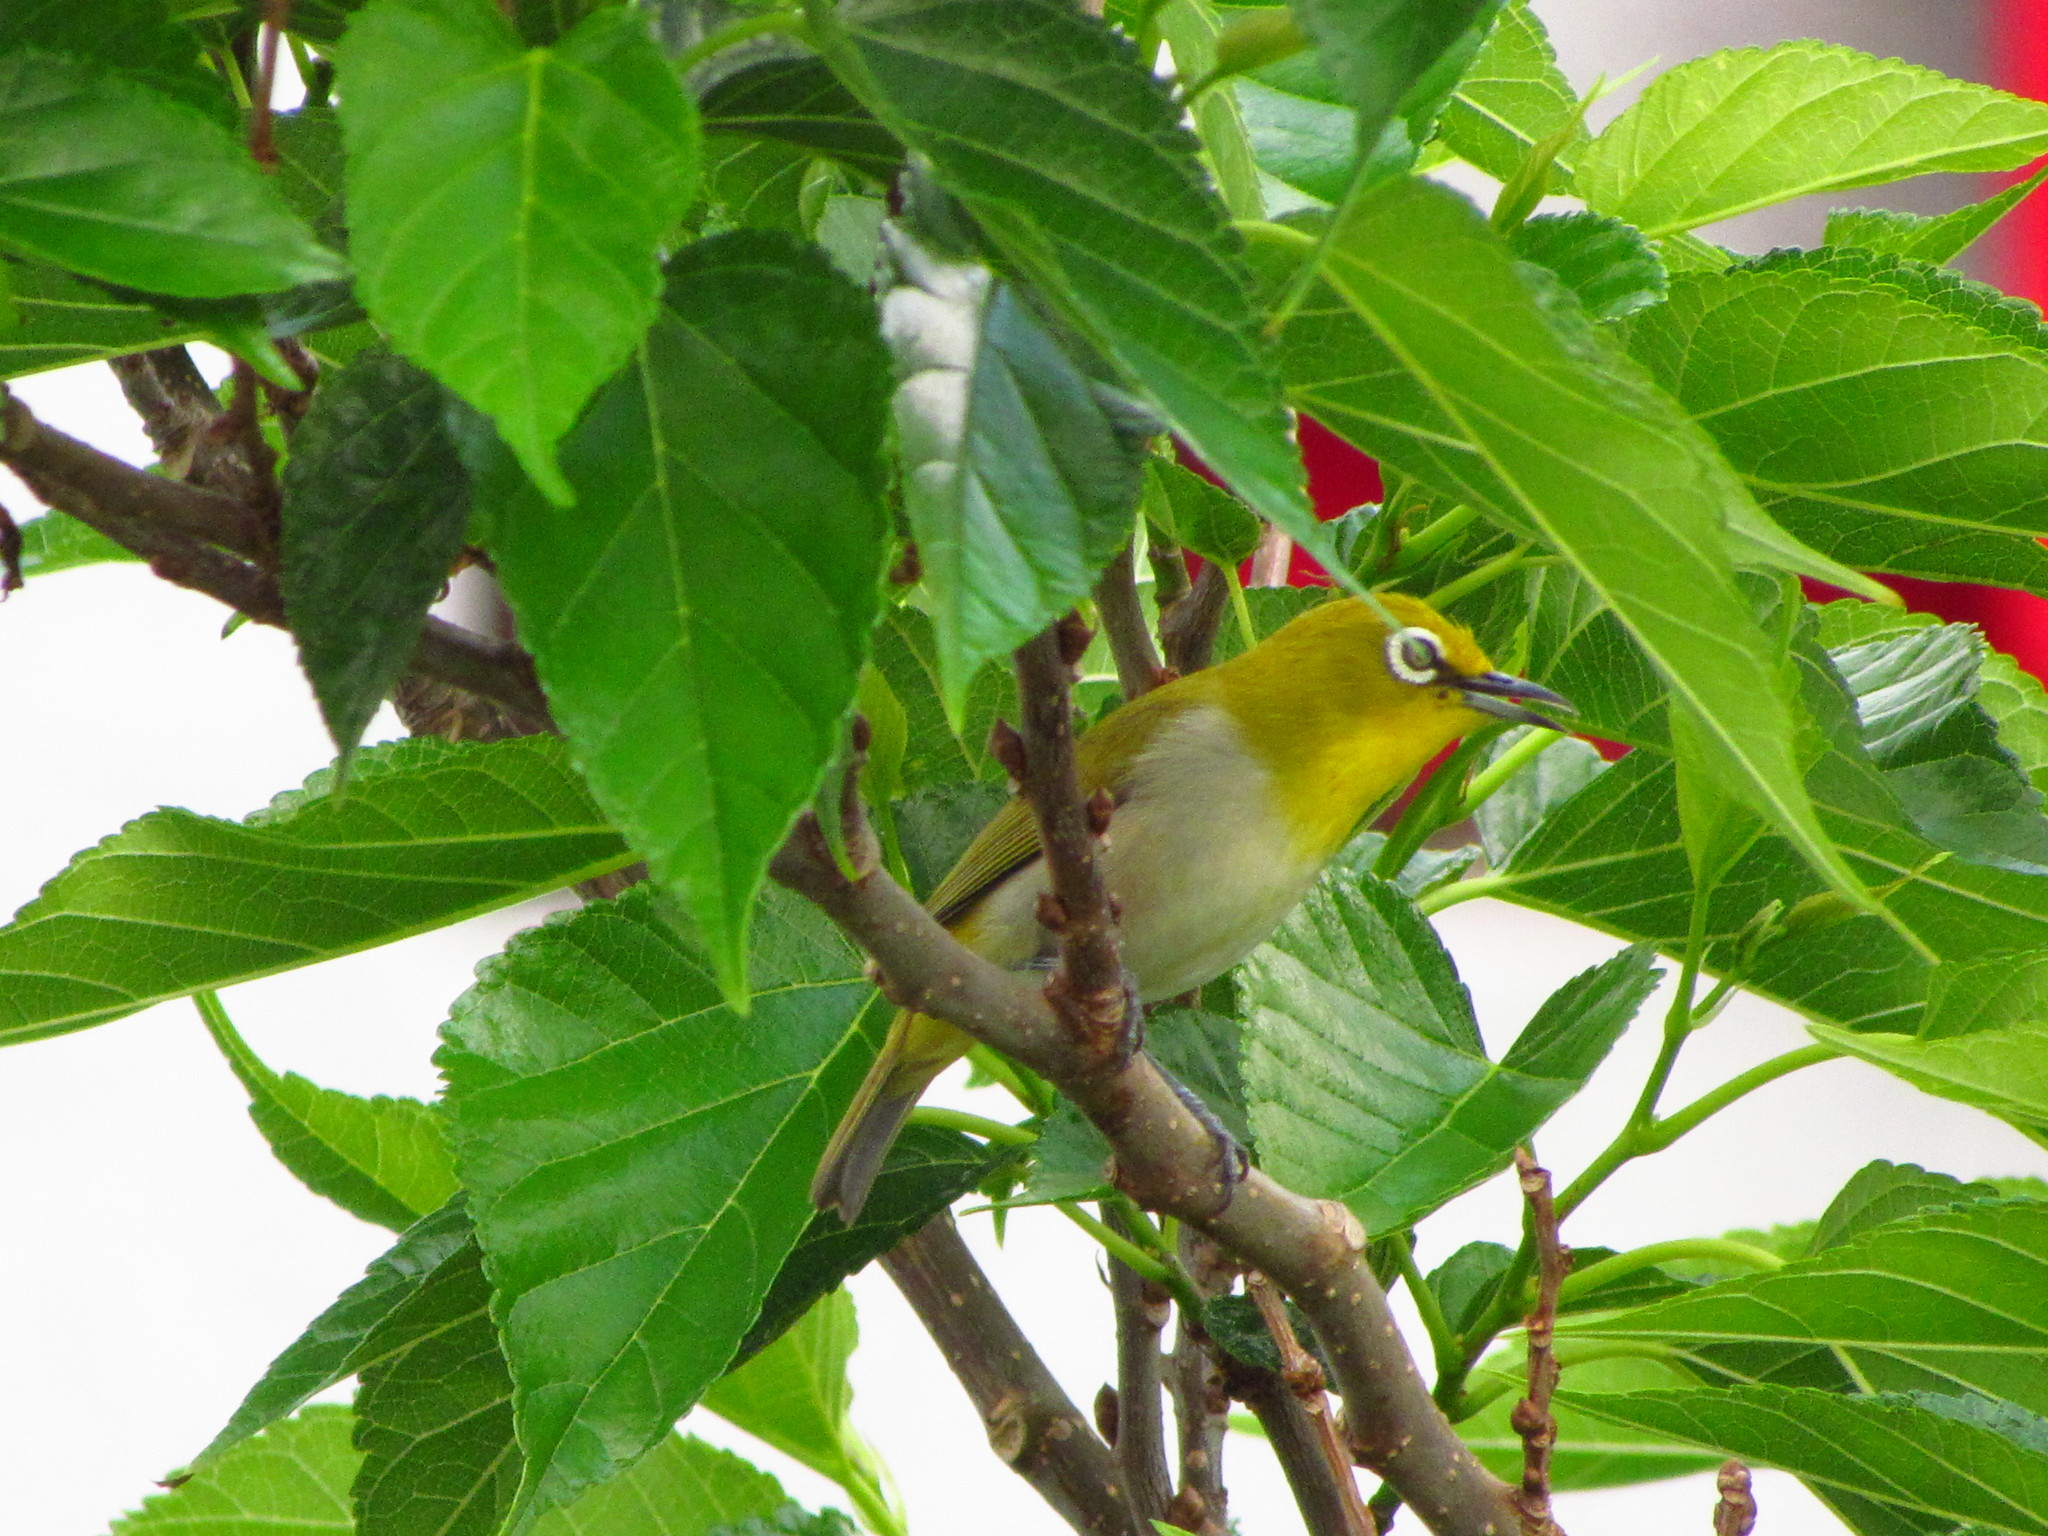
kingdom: Animalia
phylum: Chordata
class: Aves
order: Passeriformes
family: Zosteropidae
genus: Zosterops
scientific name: Zosterops meyeni
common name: Lowland white-eye
